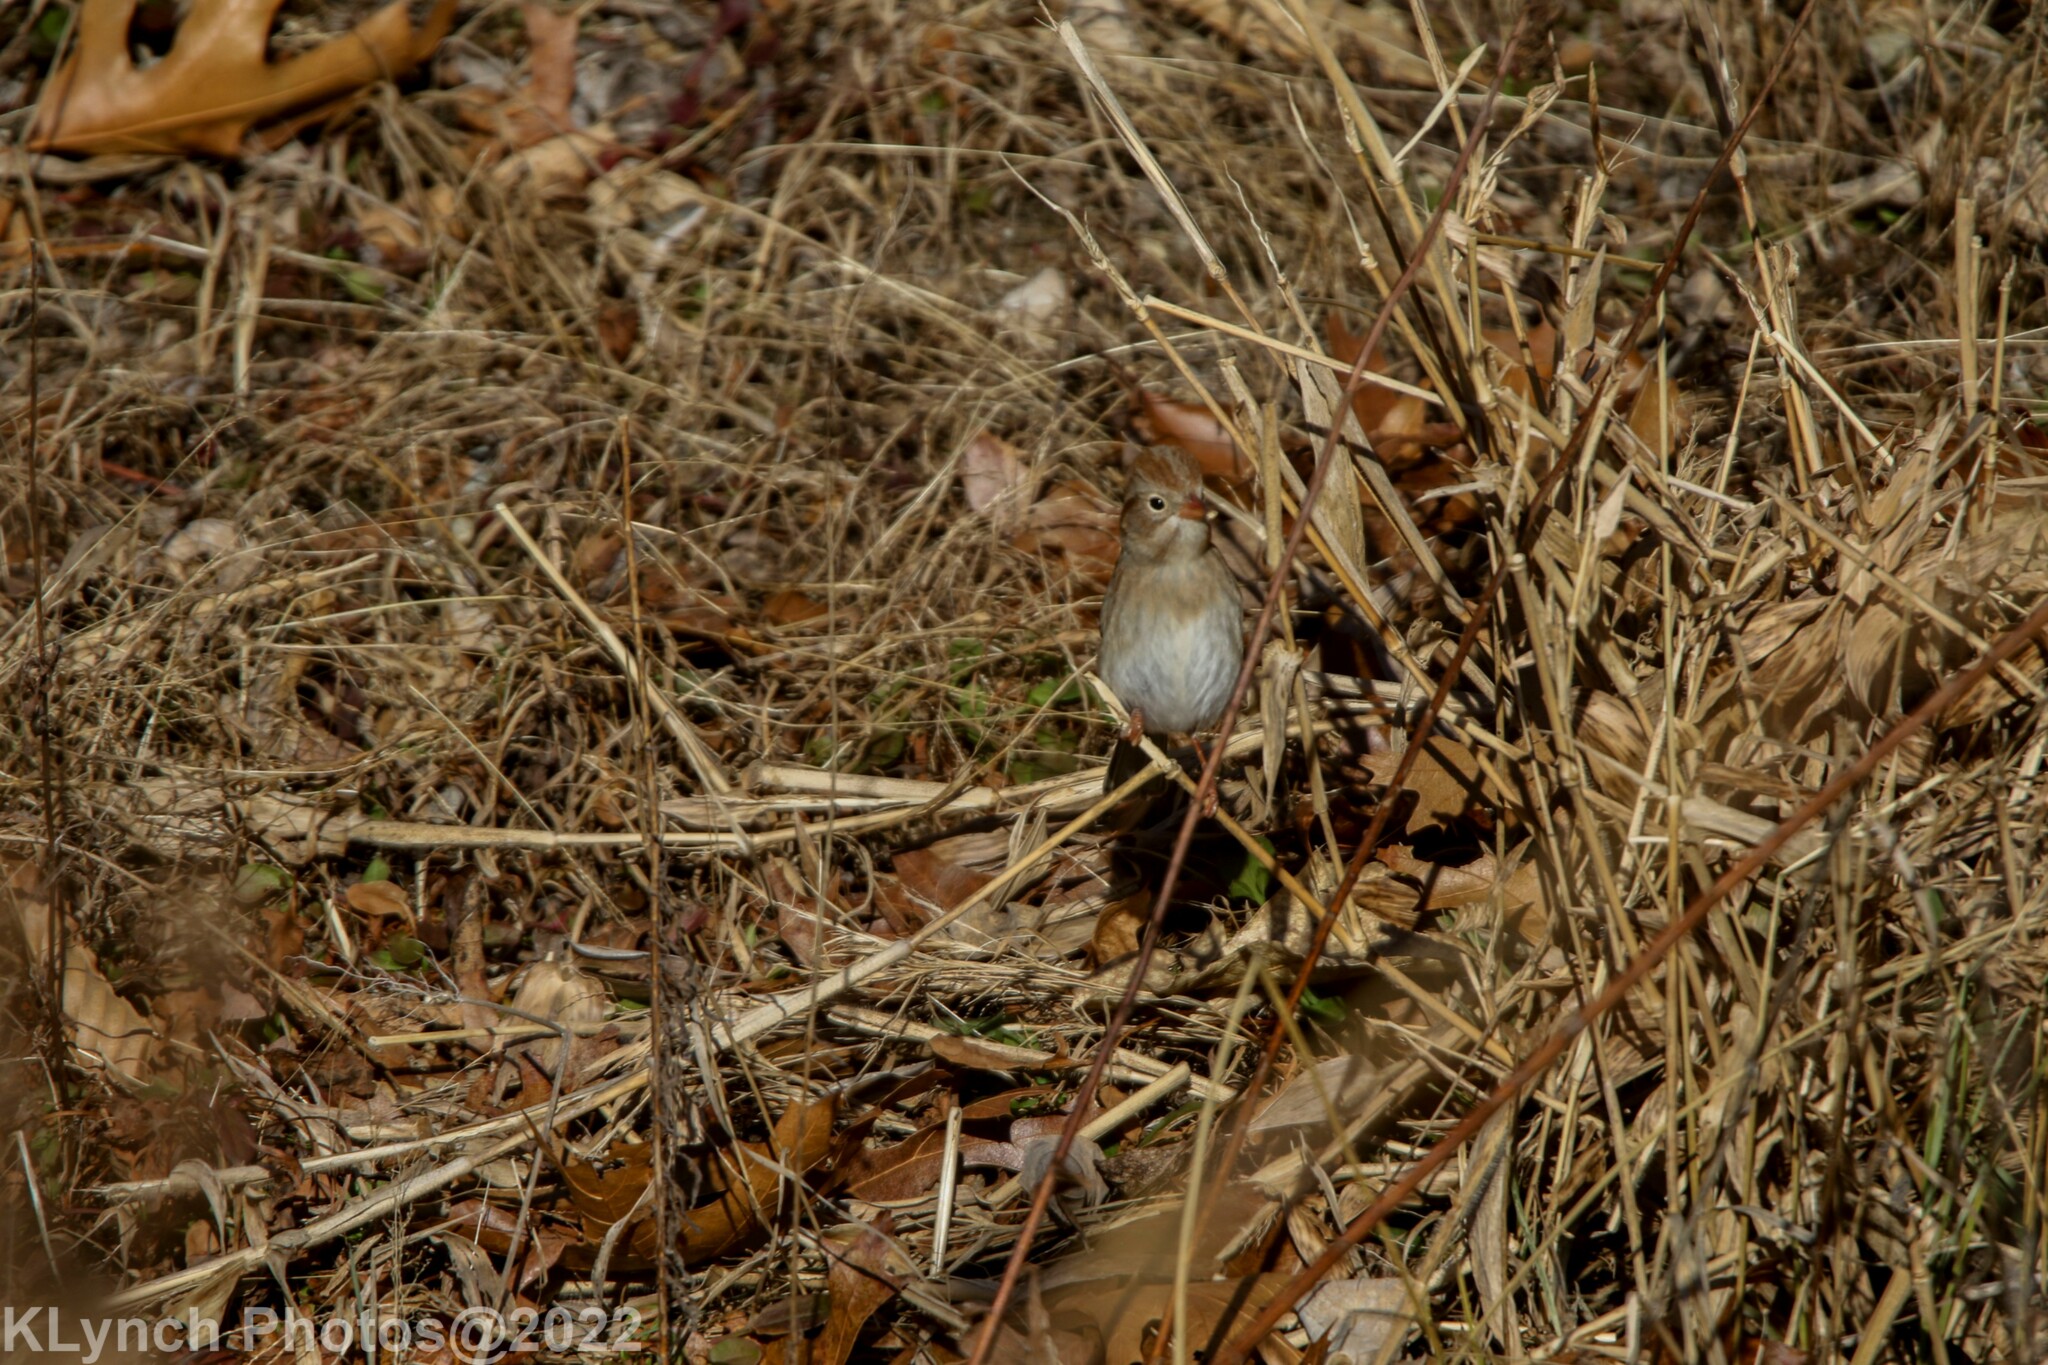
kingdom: Animalia
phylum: Chordata
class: Aves
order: Passeriformes
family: Passerellidae
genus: Spizella
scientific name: Spizella pusilla
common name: Field sparrow
